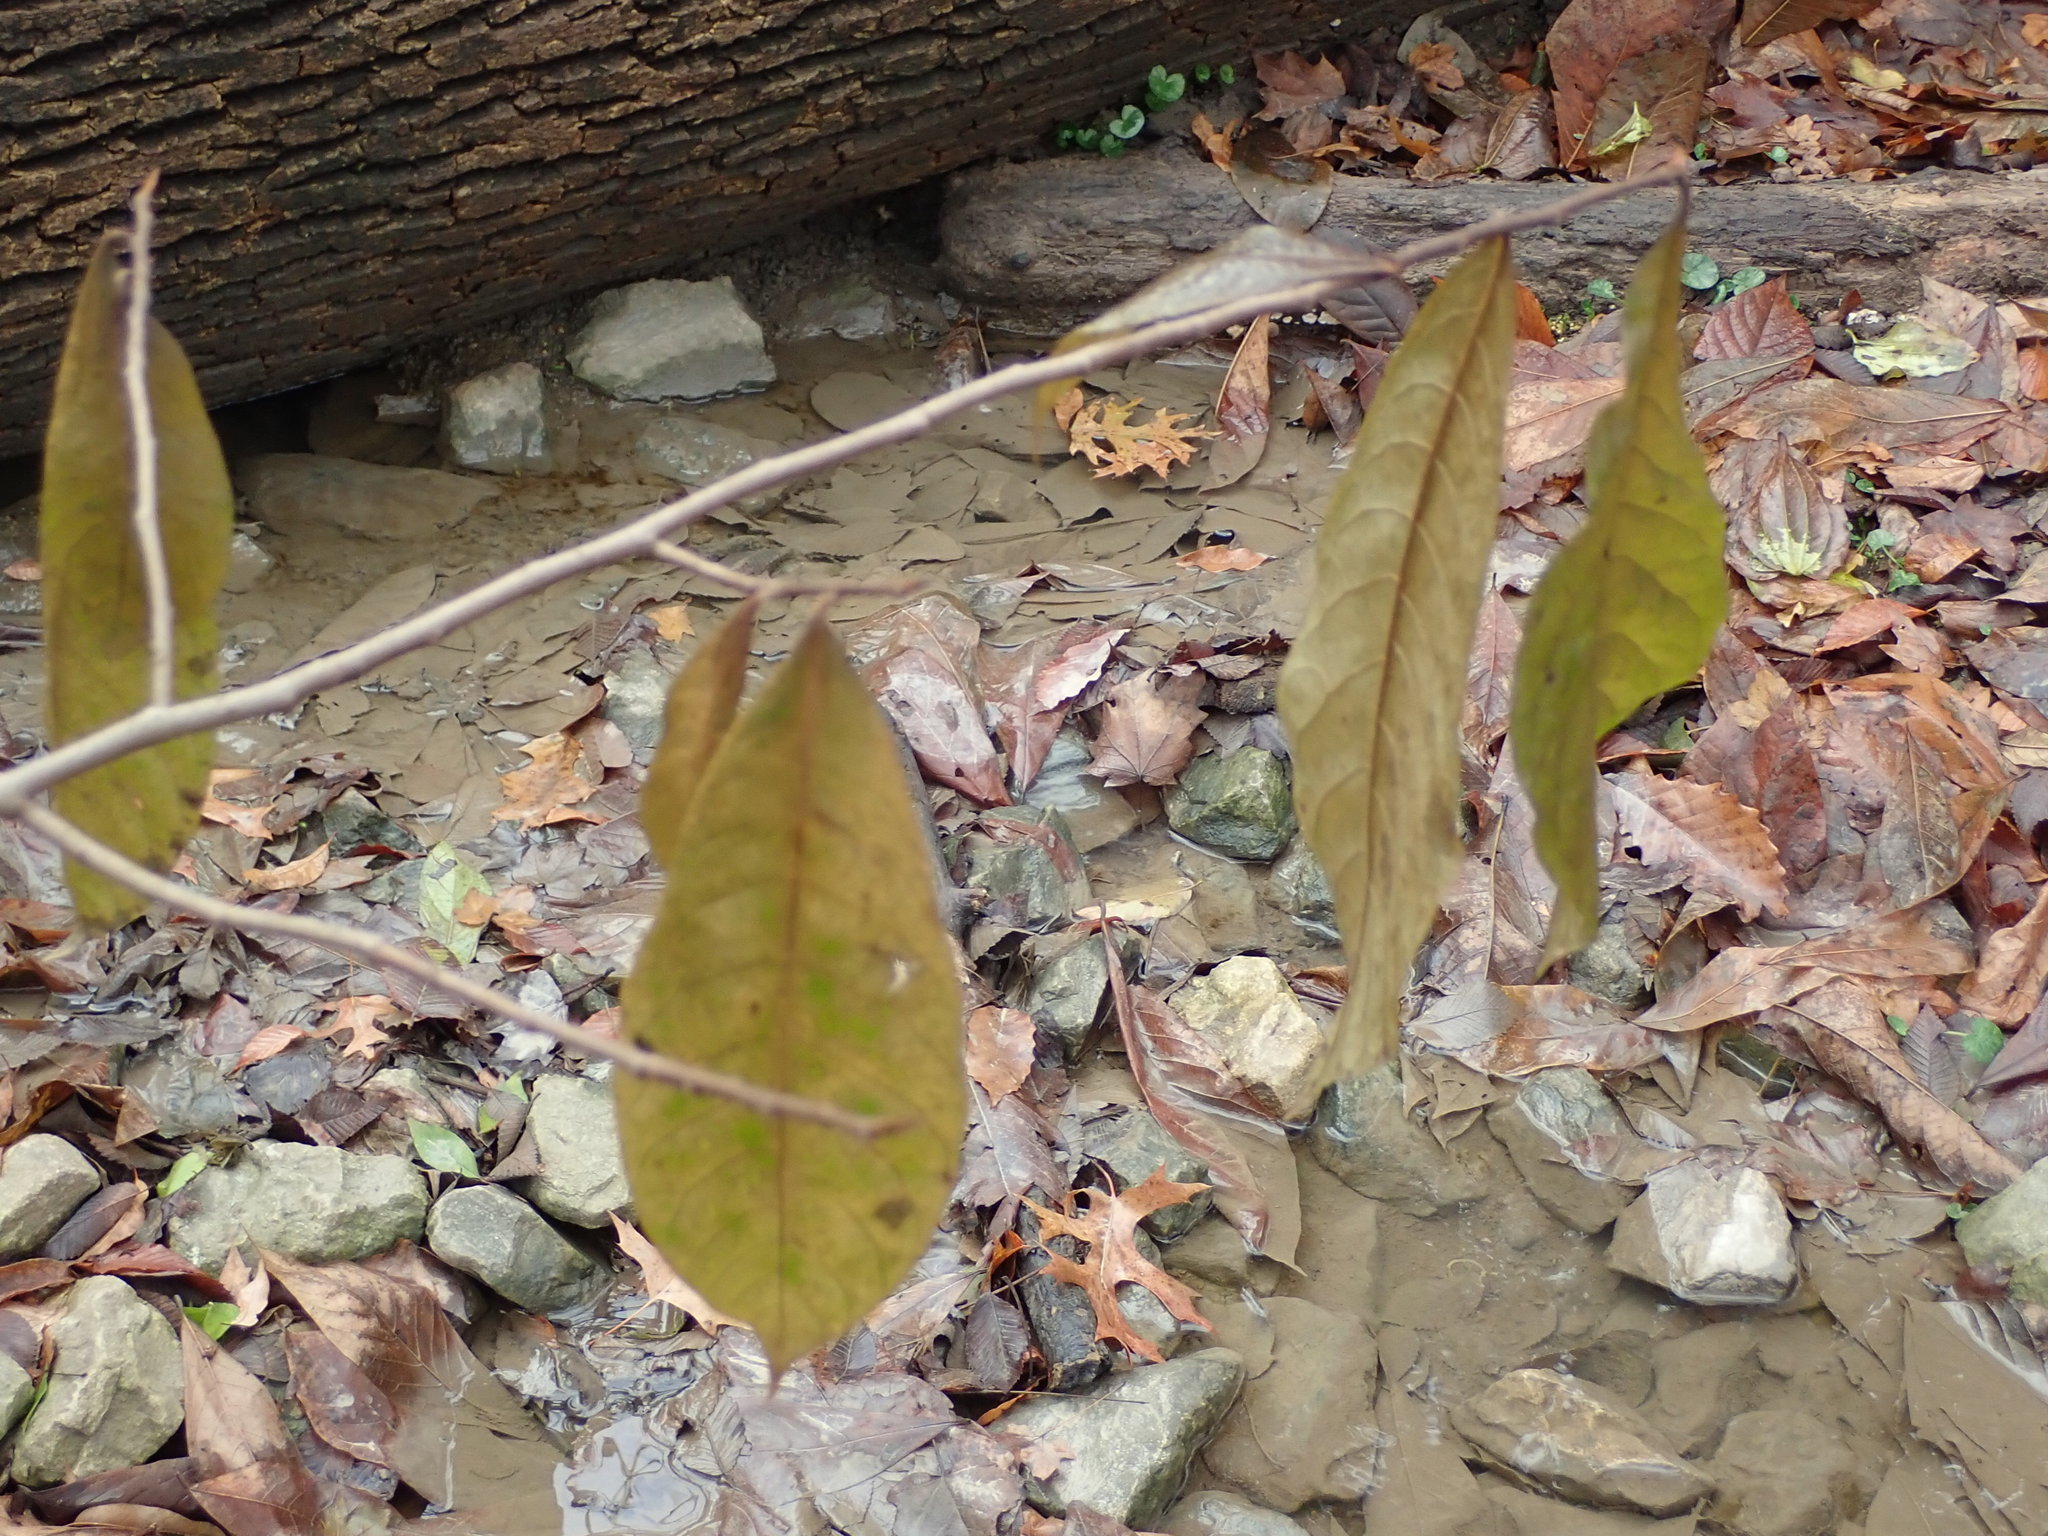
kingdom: Plantae
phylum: Tracheophyta
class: Magnoliopsida
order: Magnoliales
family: Annonaceae
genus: Asimina
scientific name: Asimina triloba
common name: Dog-banana
